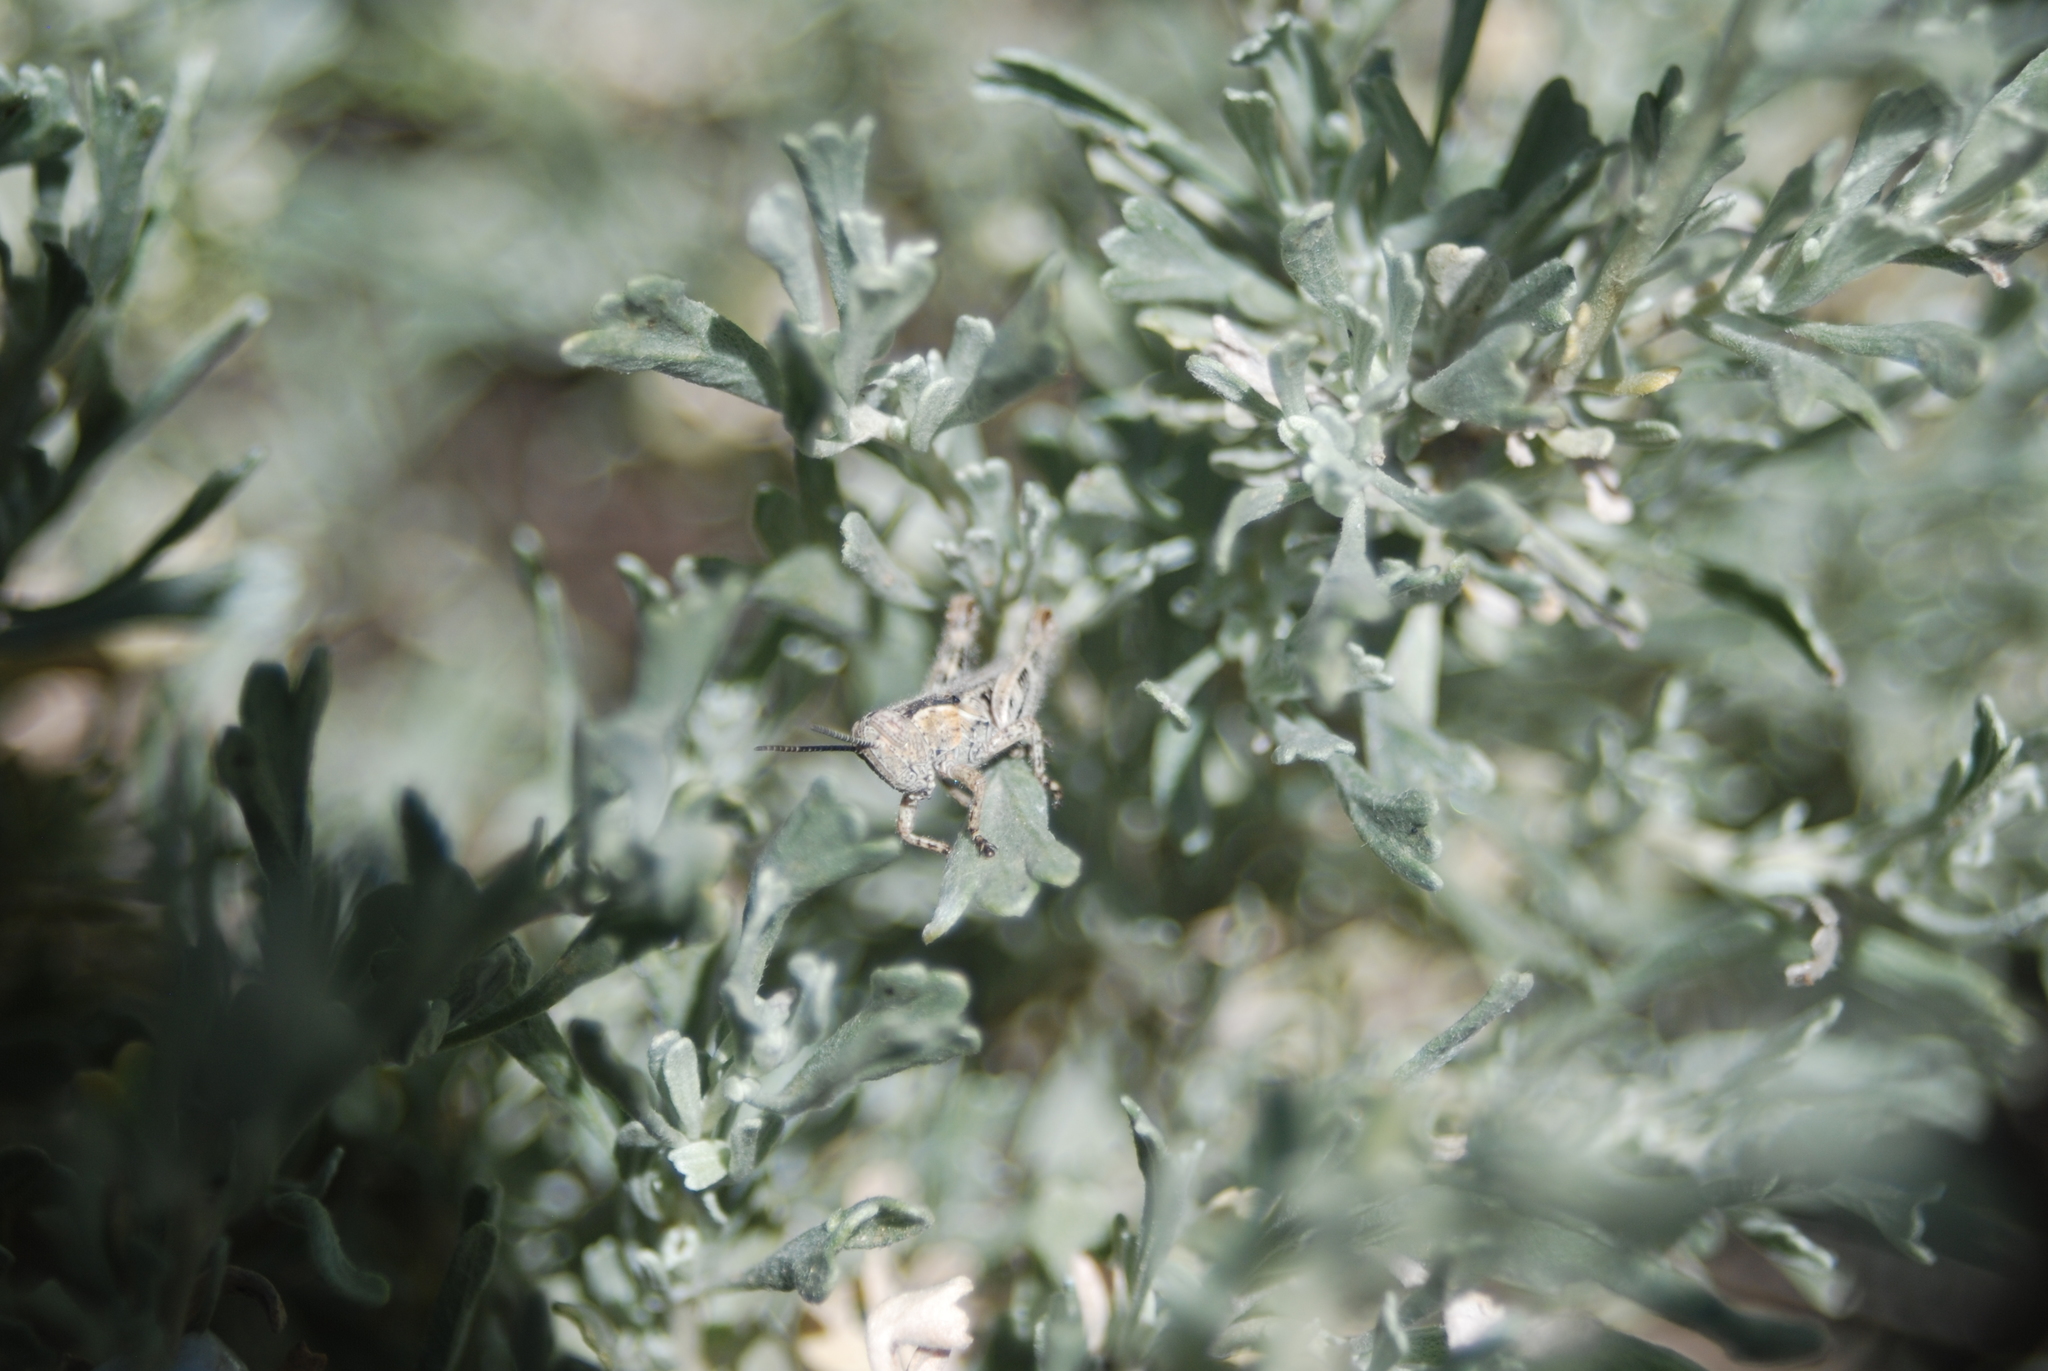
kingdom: Plantae
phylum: Tracheophyta
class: Magnoliopsida
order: Asterales
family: Asteraceae
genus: Artemisia
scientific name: Artemisia tridentata
